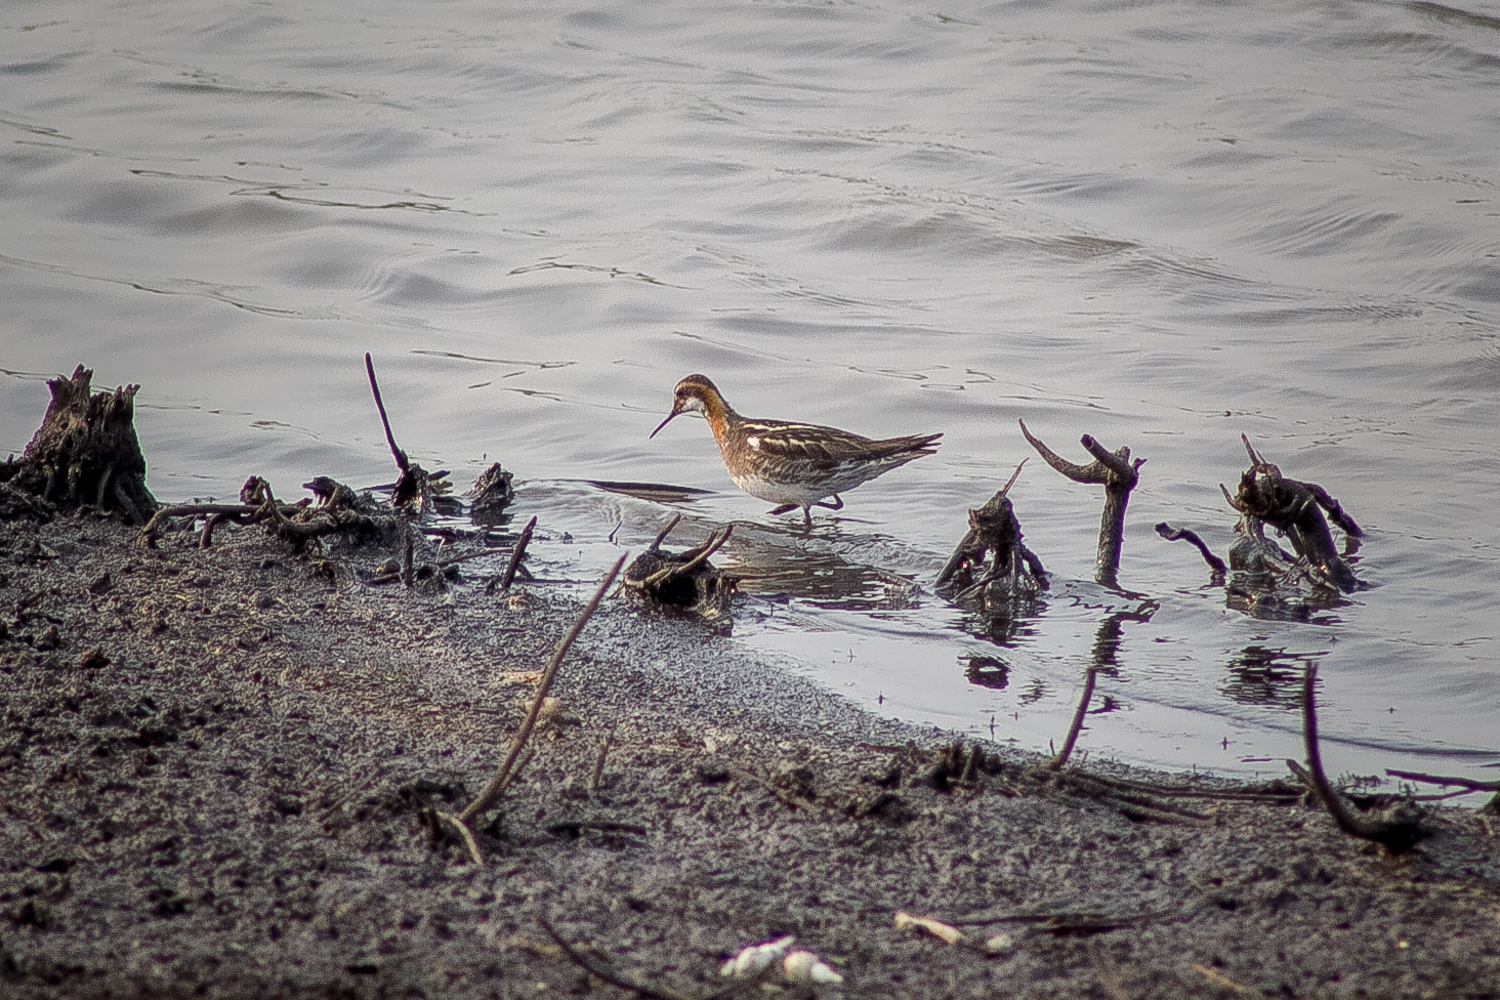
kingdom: Animalia
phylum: Chordata
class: Aves
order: Charadriiformes
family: Scolopacidae
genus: Phalaropus
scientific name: Phalaropus lobatus
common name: Red-necked phalarope
